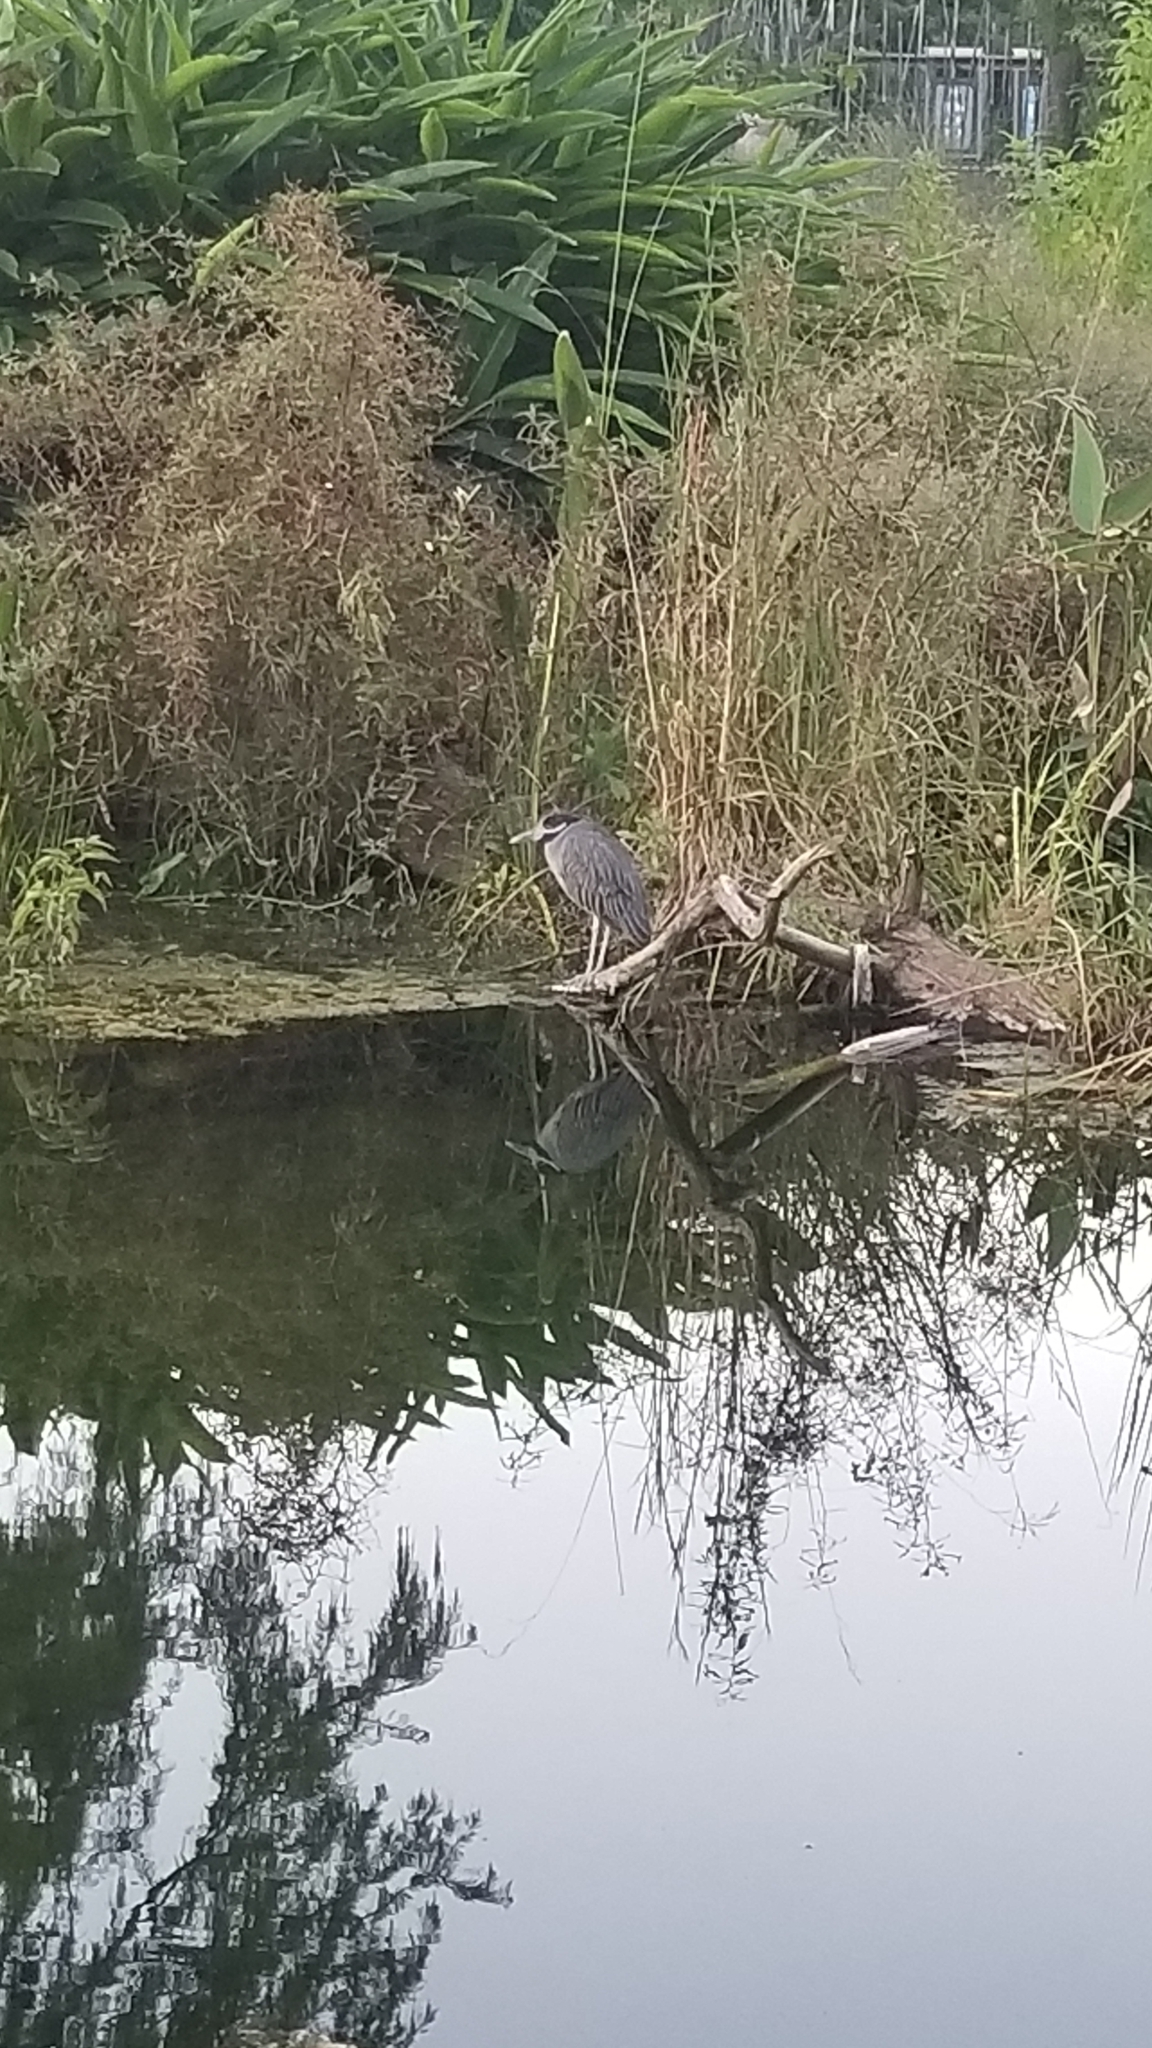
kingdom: Animalia
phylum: Chordata
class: Aves
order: Pelecaniformes
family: Ardeidae
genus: Nyctanassa
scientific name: Nyctanassa violacea
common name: Yellow-crowned night heron
